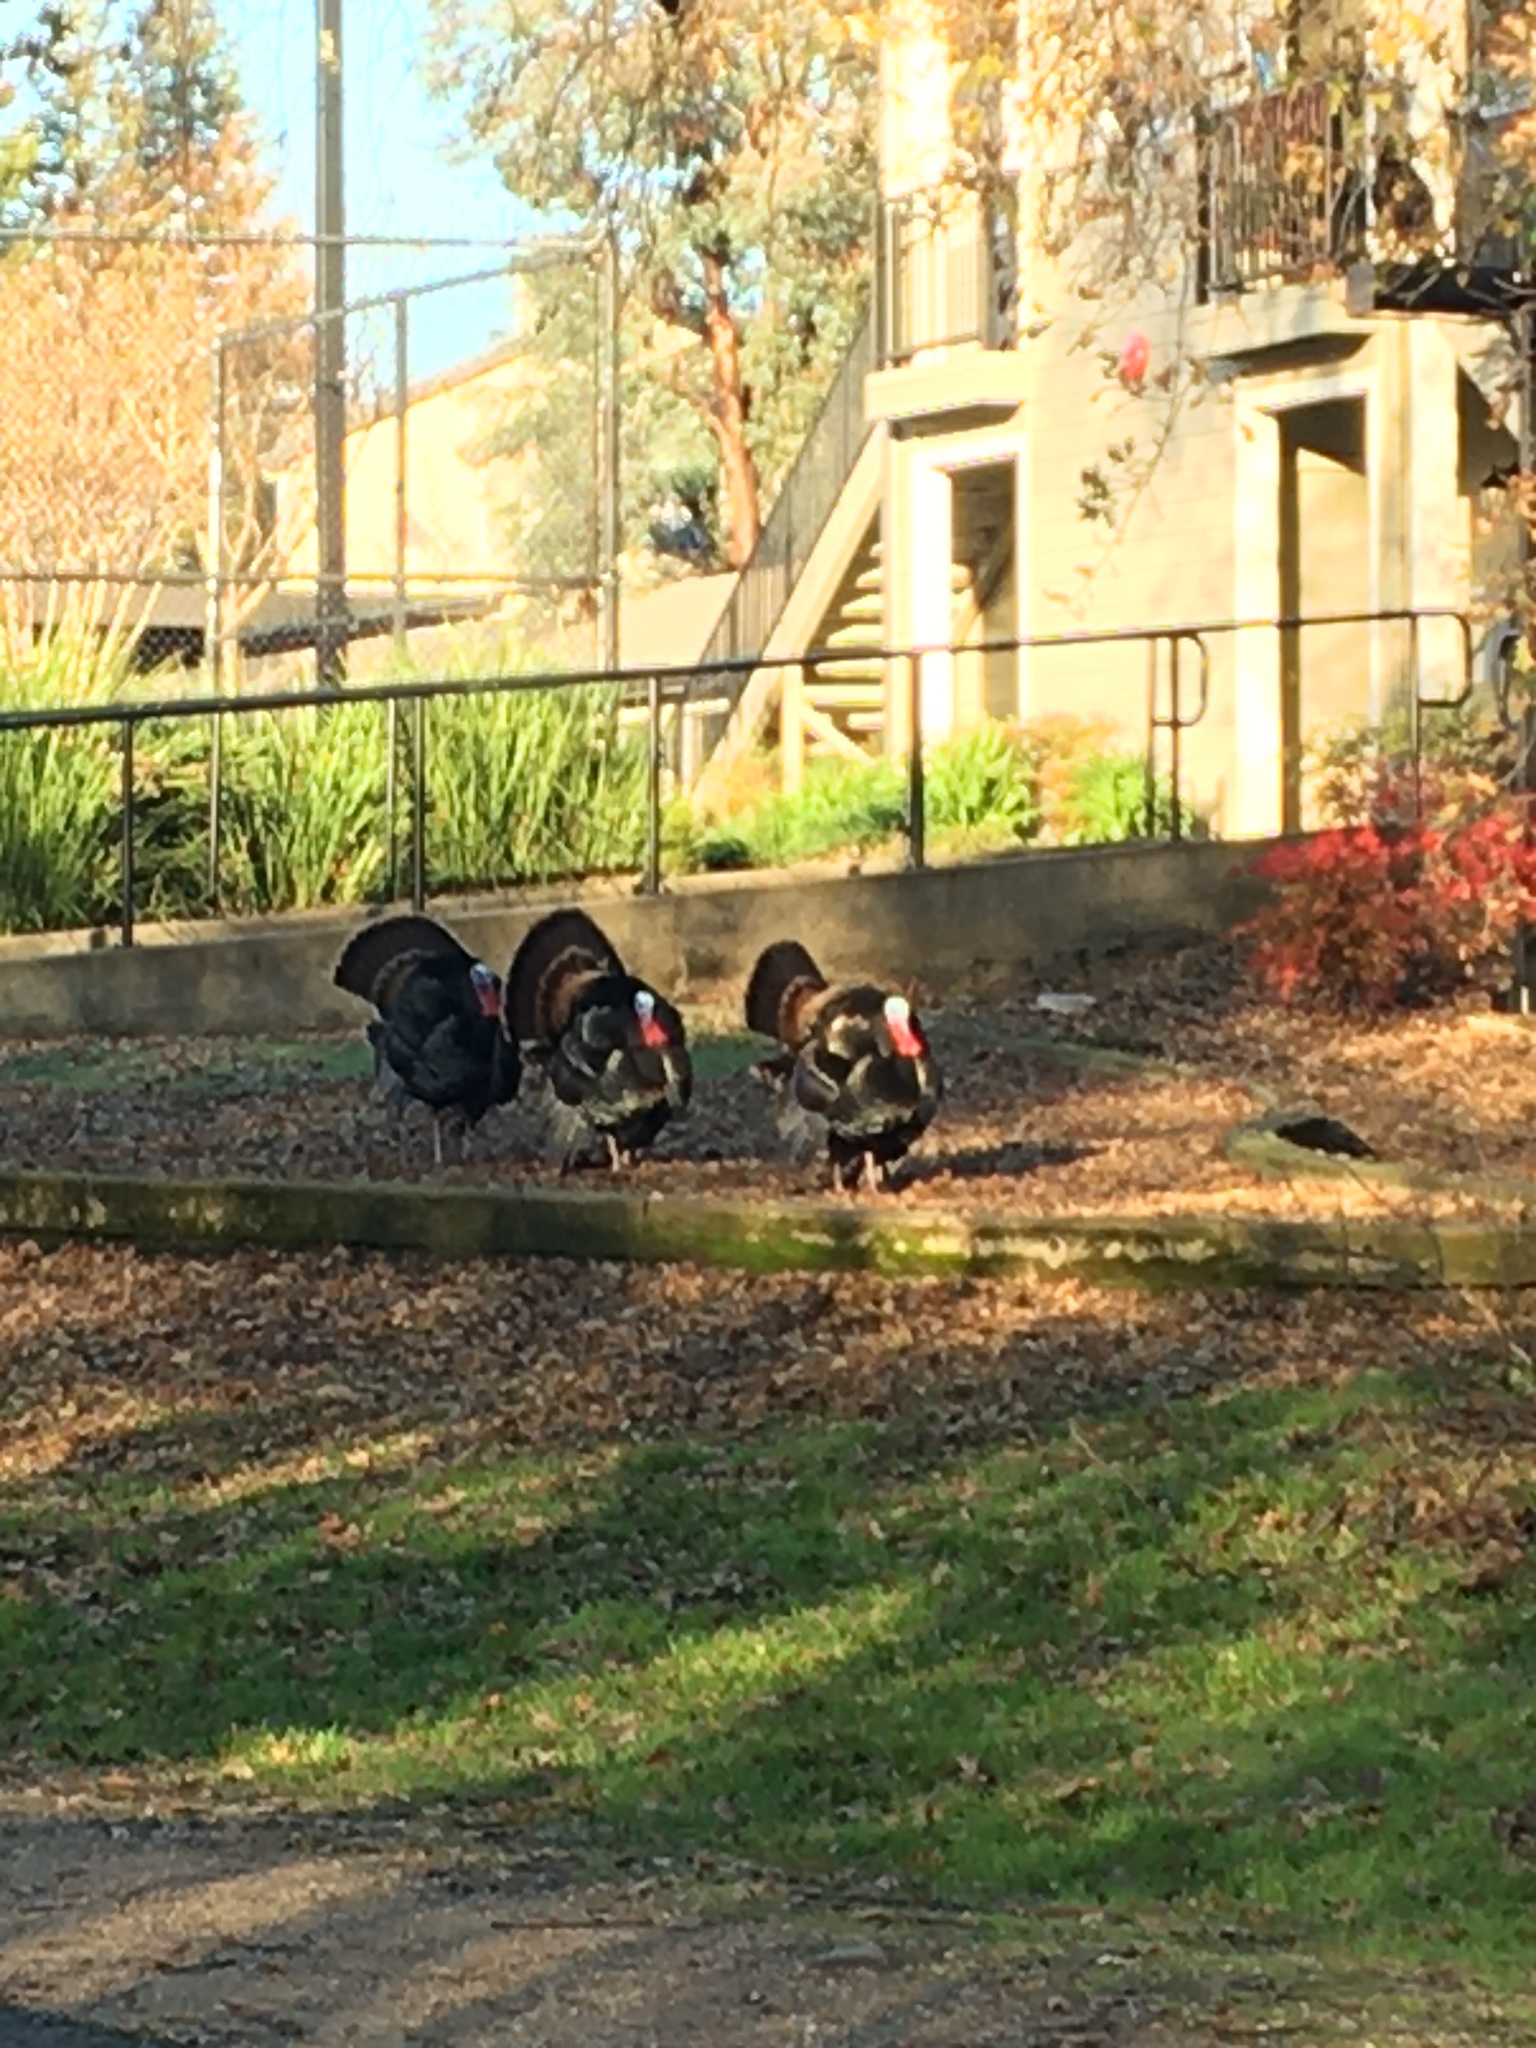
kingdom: Animalia
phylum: Chordata
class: Aves
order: Galliformes
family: Phasianidae
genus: Meleagris
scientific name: Meleagris gallopavo
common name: Wild turkey
